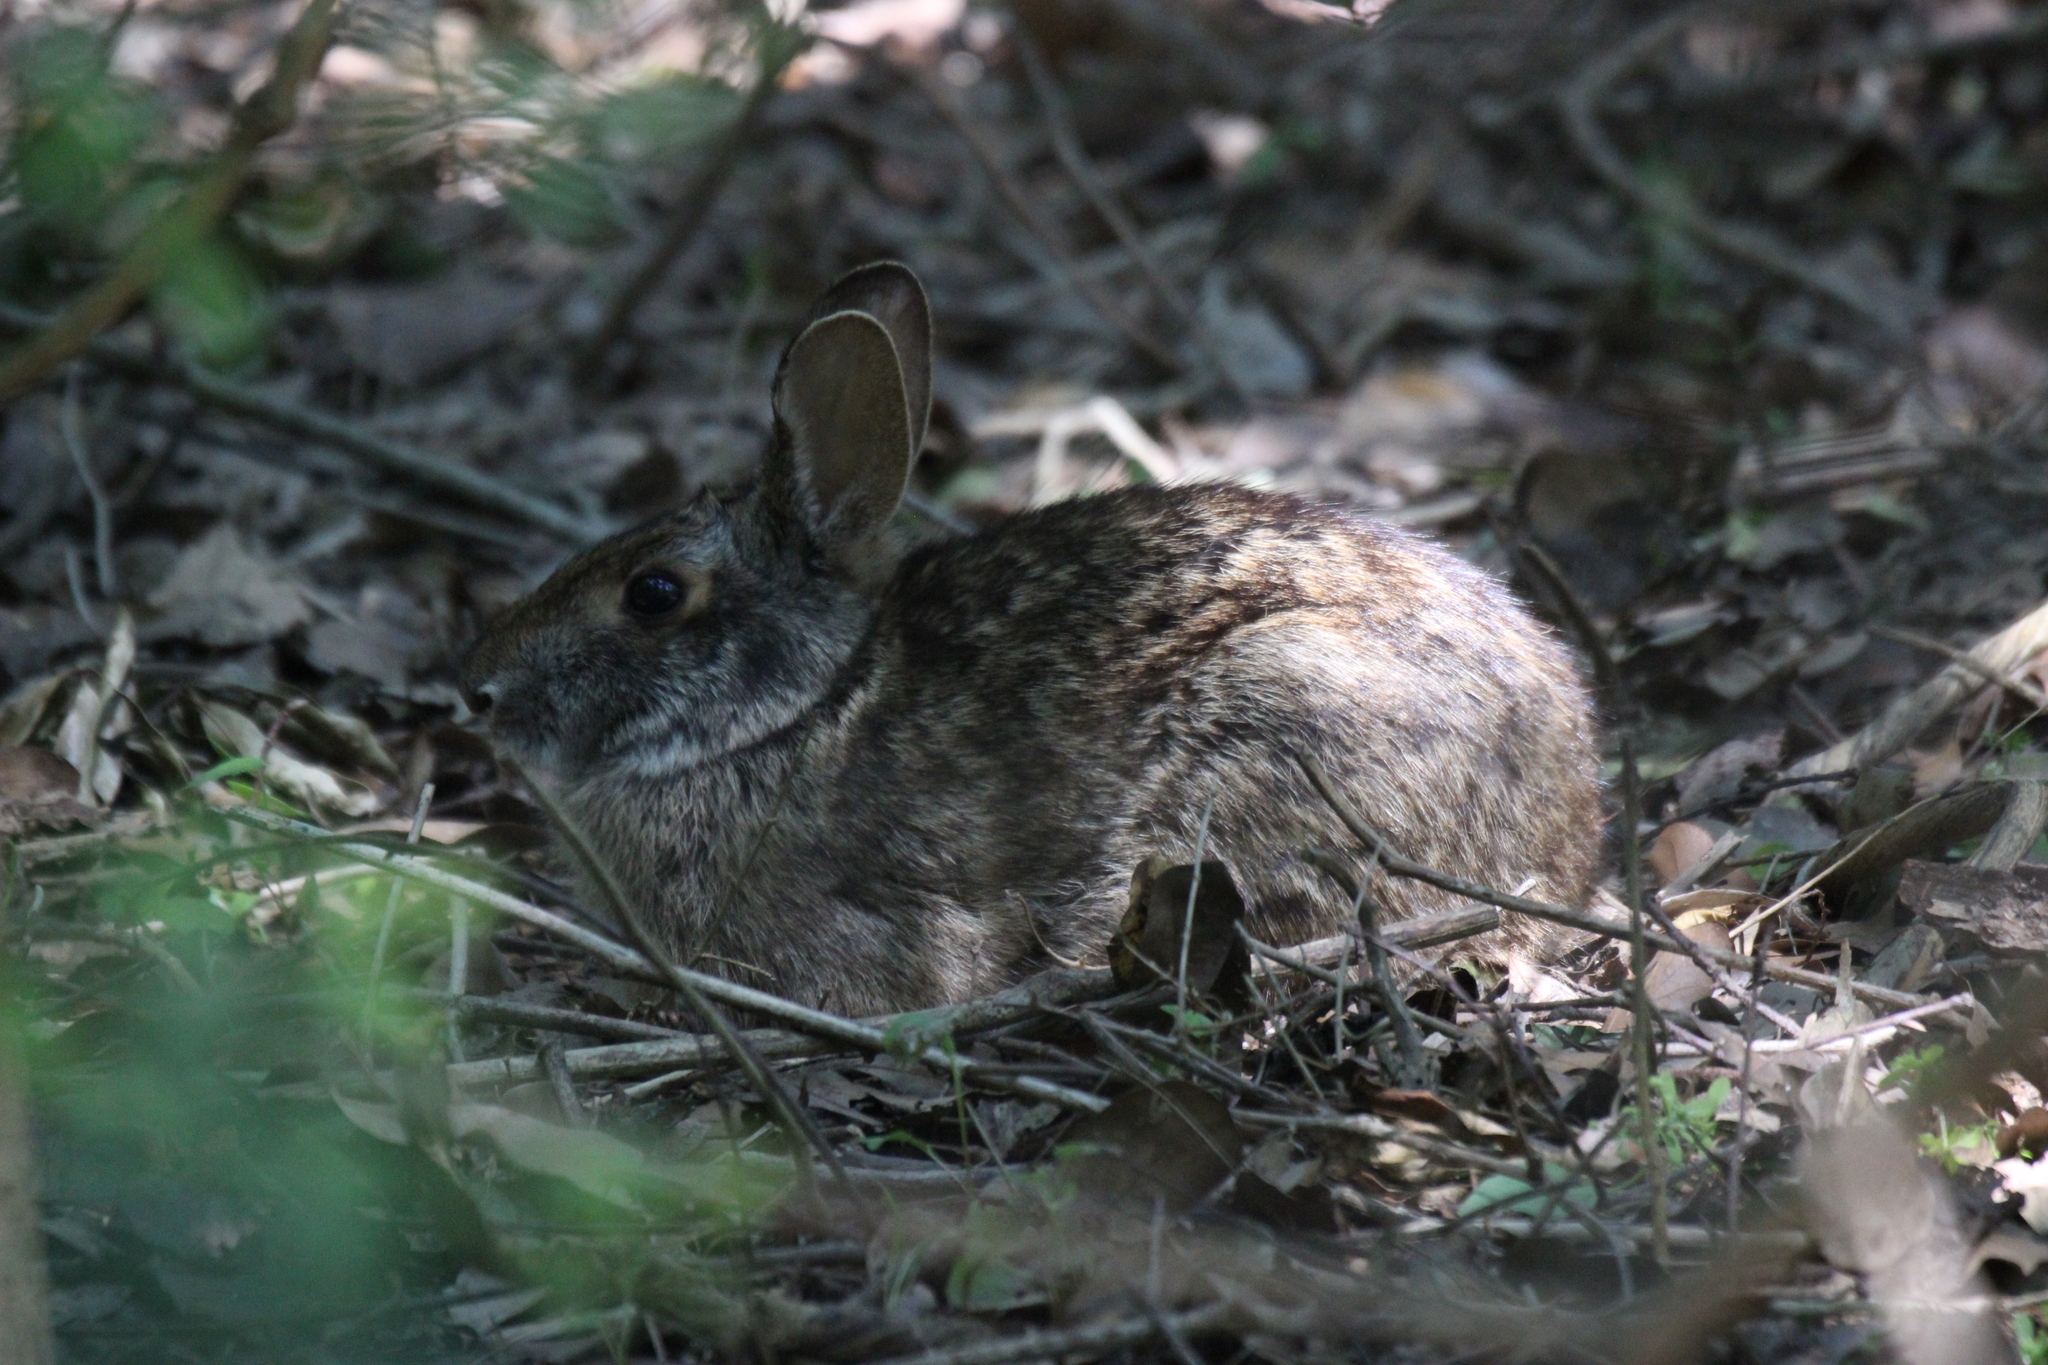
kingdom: Animalia
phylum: Chordata
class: Mammalia
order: Lagomorpha
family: Leporidae
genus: Sylvilagus
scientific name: Sylvilagus floridanus
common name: Eastern cottontail
